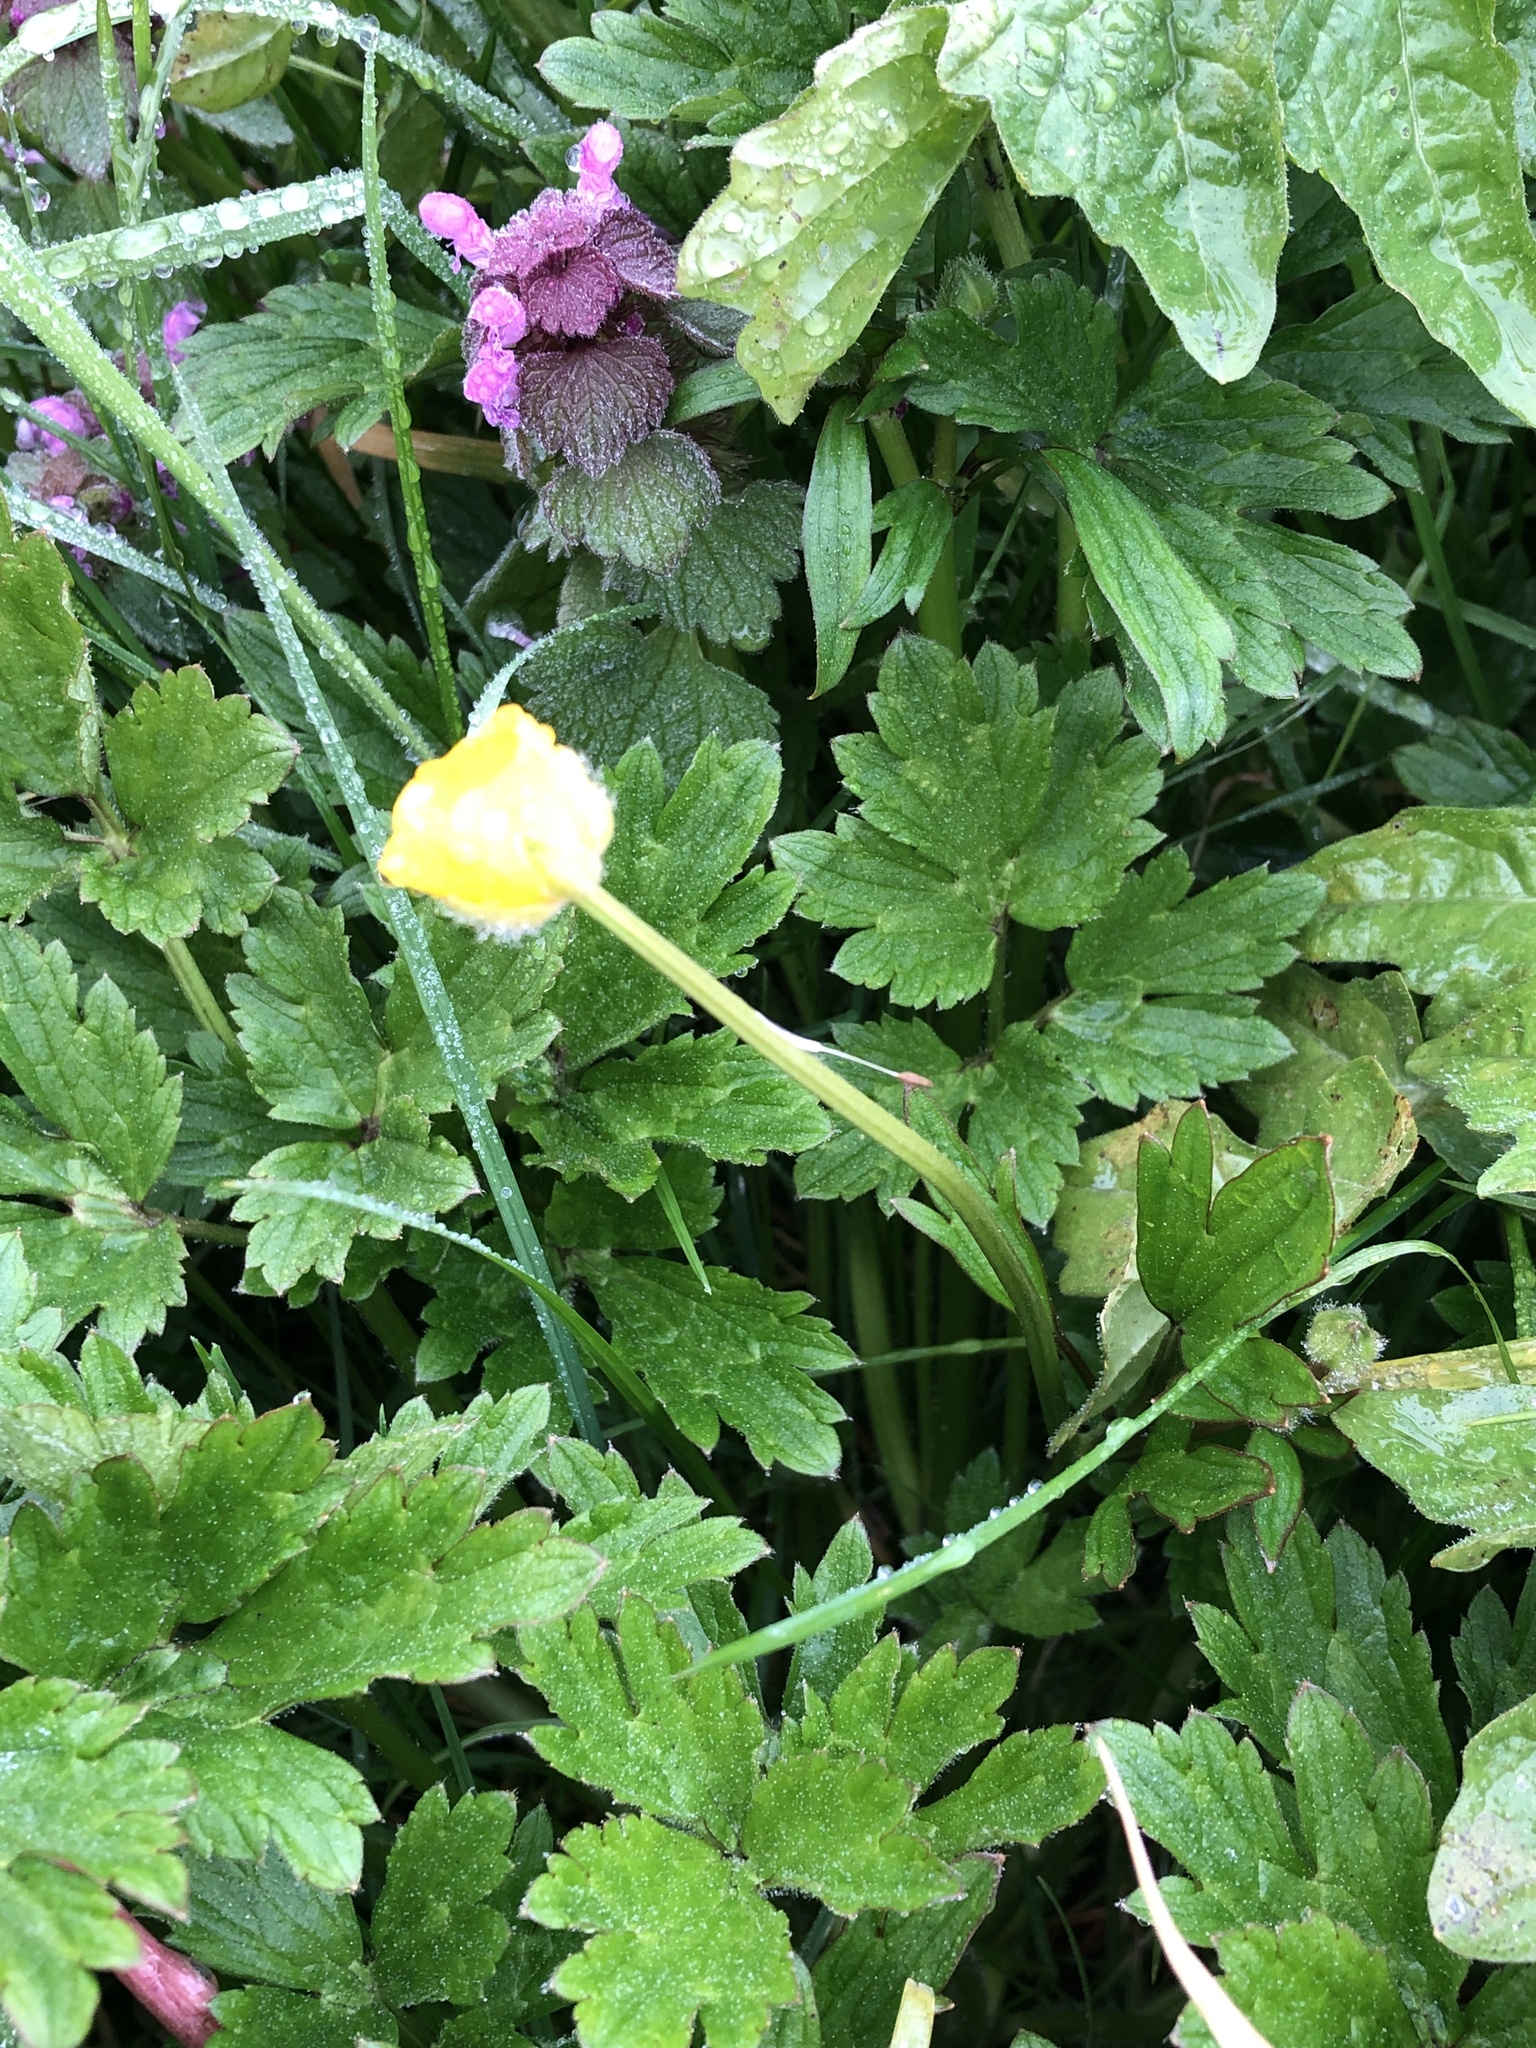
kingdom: Plantae
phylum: Tracheophyta
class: Magnoliopsida
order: Ranunculales
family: Ranunculaceae
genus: Ranunculus
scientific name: Ranunculus repens
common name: Creeping buttercup
